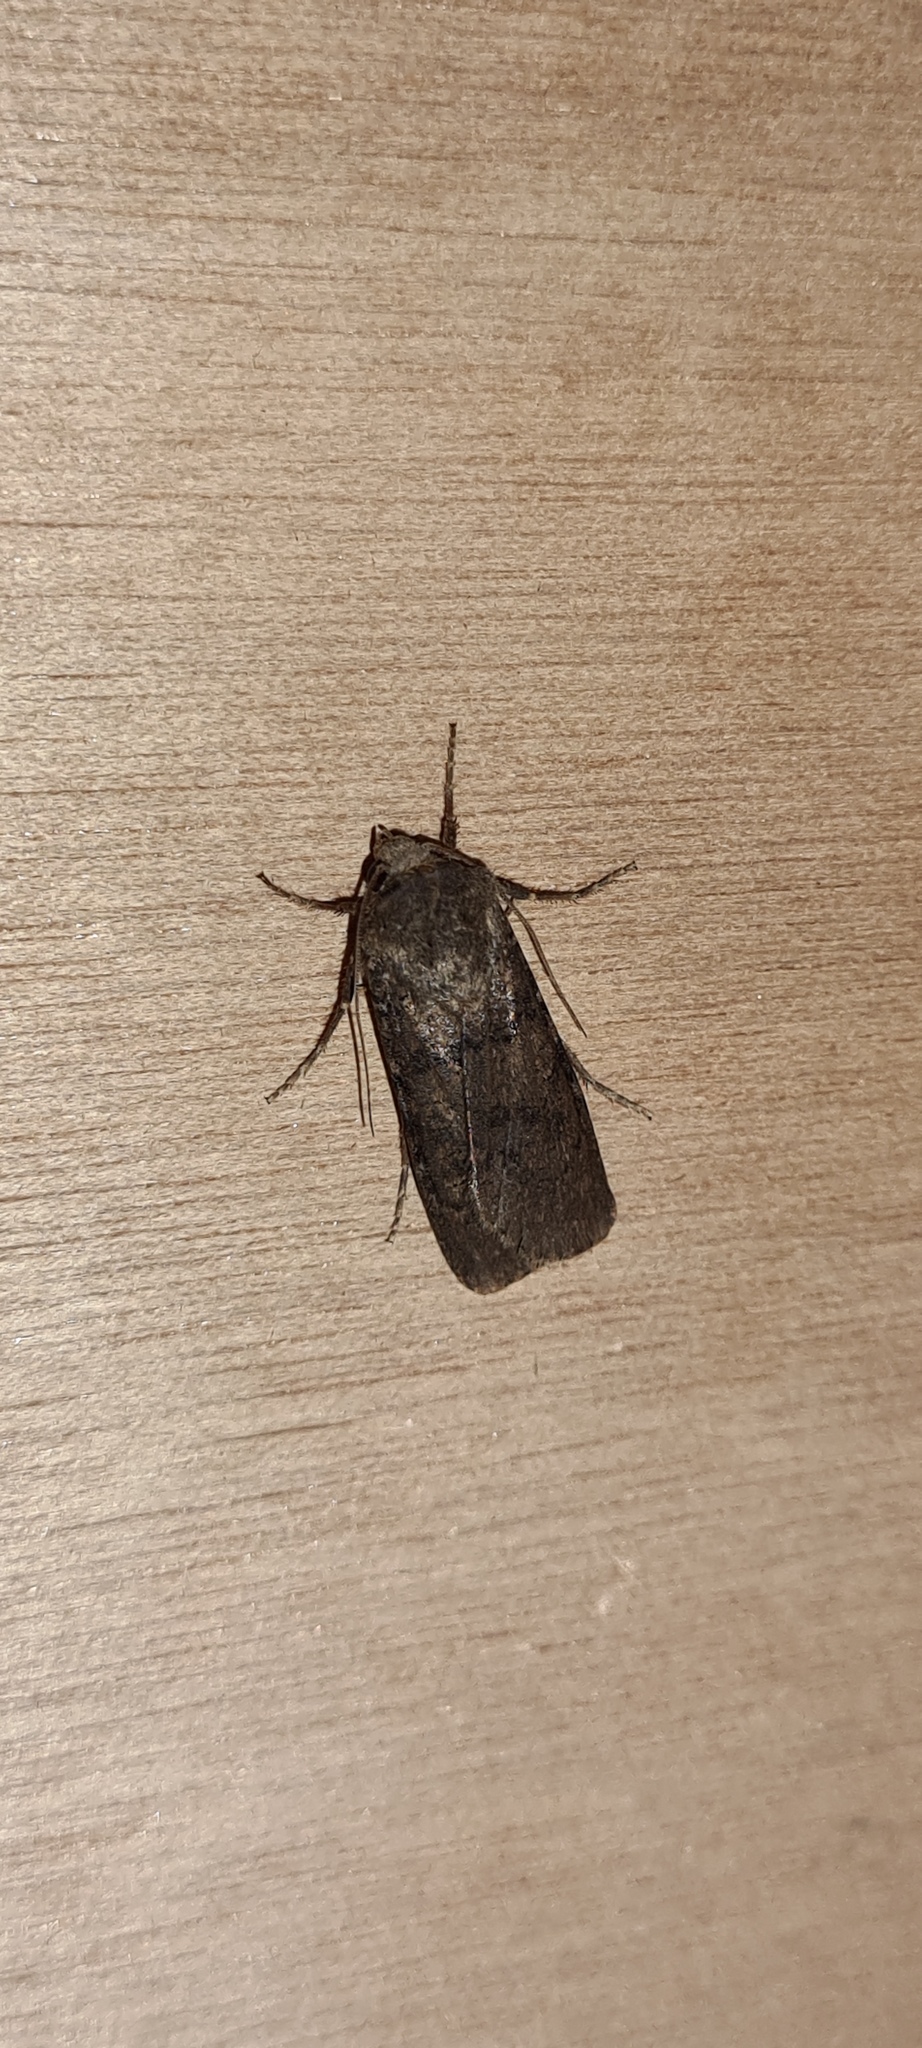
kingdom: Animalia
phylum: Arthropoda
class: Insecta
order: Lepidoptera
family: Noctuidae
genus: Agrotis
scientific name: Agrotis segetum
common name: Turnip moth
